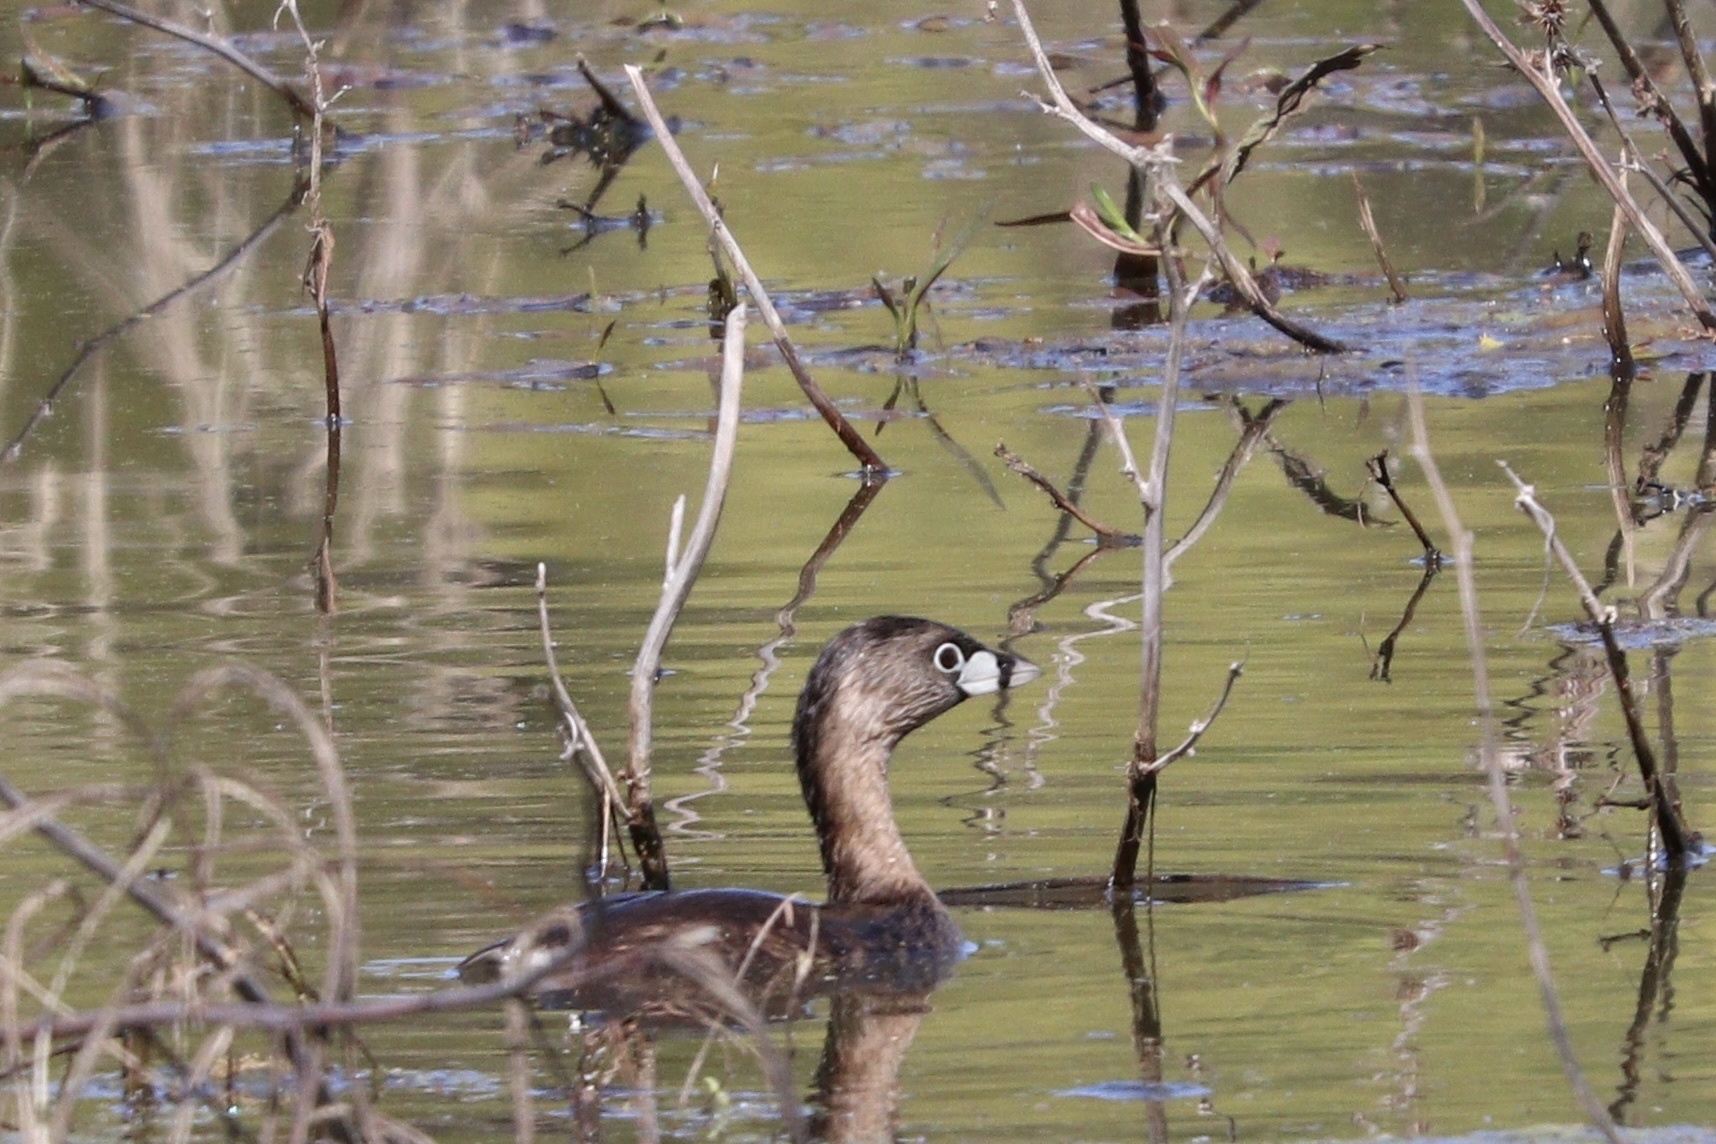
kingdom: Animalia
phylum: Chordata
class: Aves
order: Podicipediformes
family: Podicipedidae
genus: Podilymbus
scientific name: Podilymbus podiceps
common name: Pied-billed grebe
